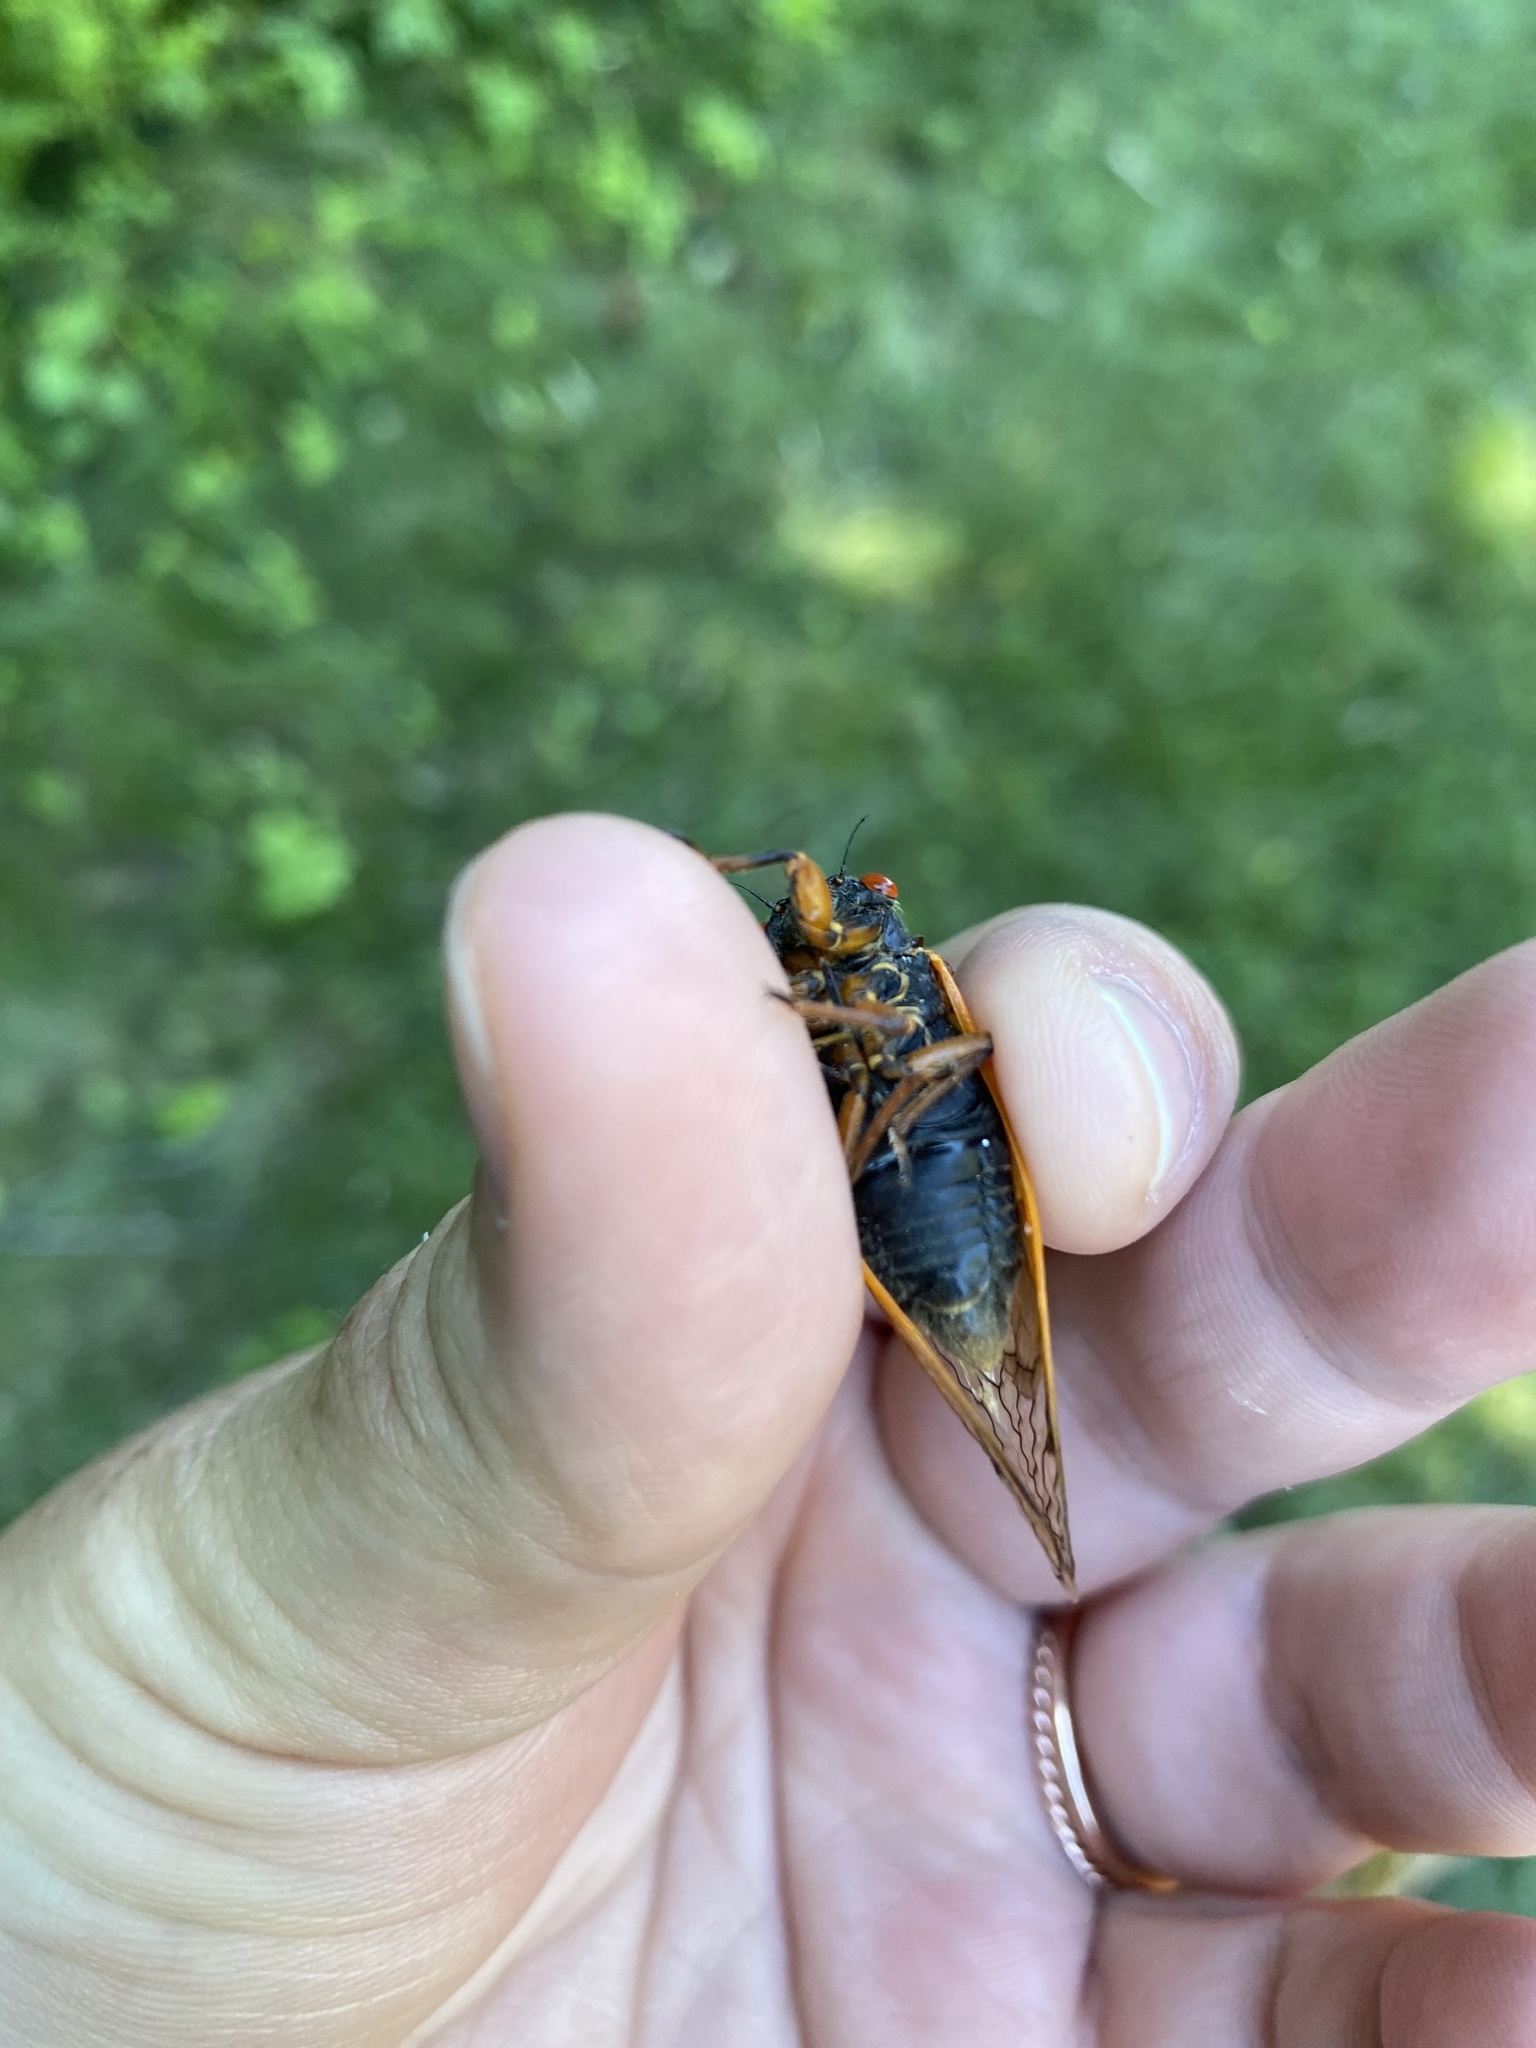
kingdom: Animalia
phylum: Arthropoda
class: Insecta
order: Hemiptera
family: Cicadidae
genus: Magicicada
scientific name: Magicicada cassini
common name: Cassin's 17-year cicada
